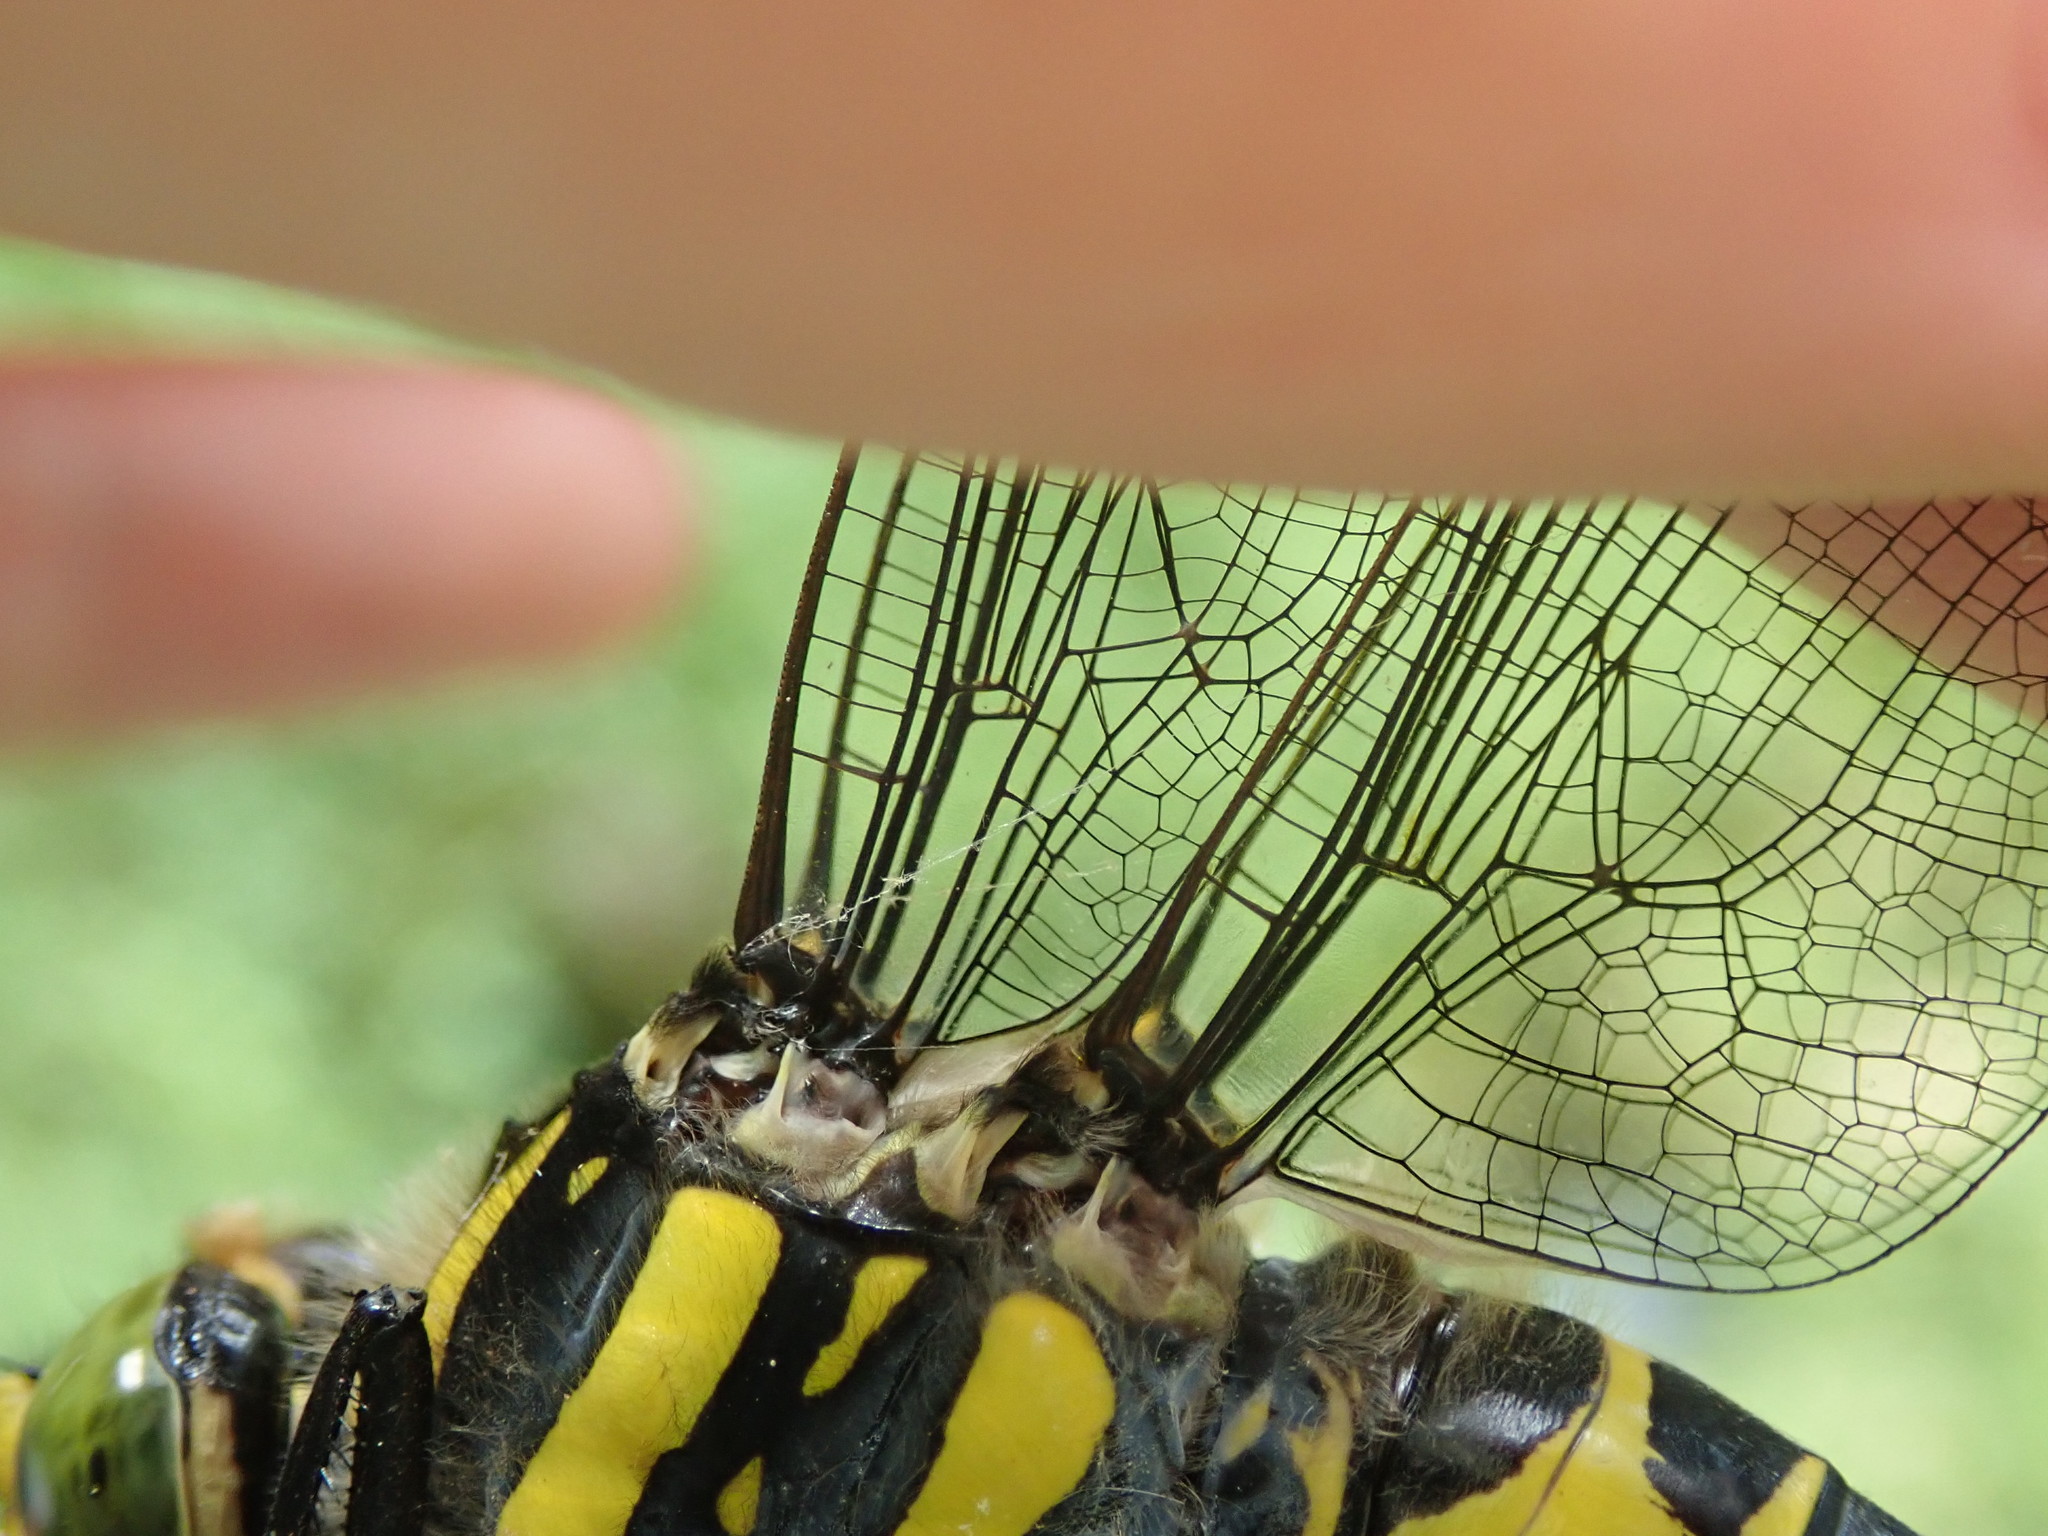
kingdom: Animalia
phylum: Arthropoda
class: Insecta
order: Odonata
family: Cordulegastridae
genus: Cordulegaster
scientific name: Cordulegaster boltonii
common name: Golden-ringed dragonfly
